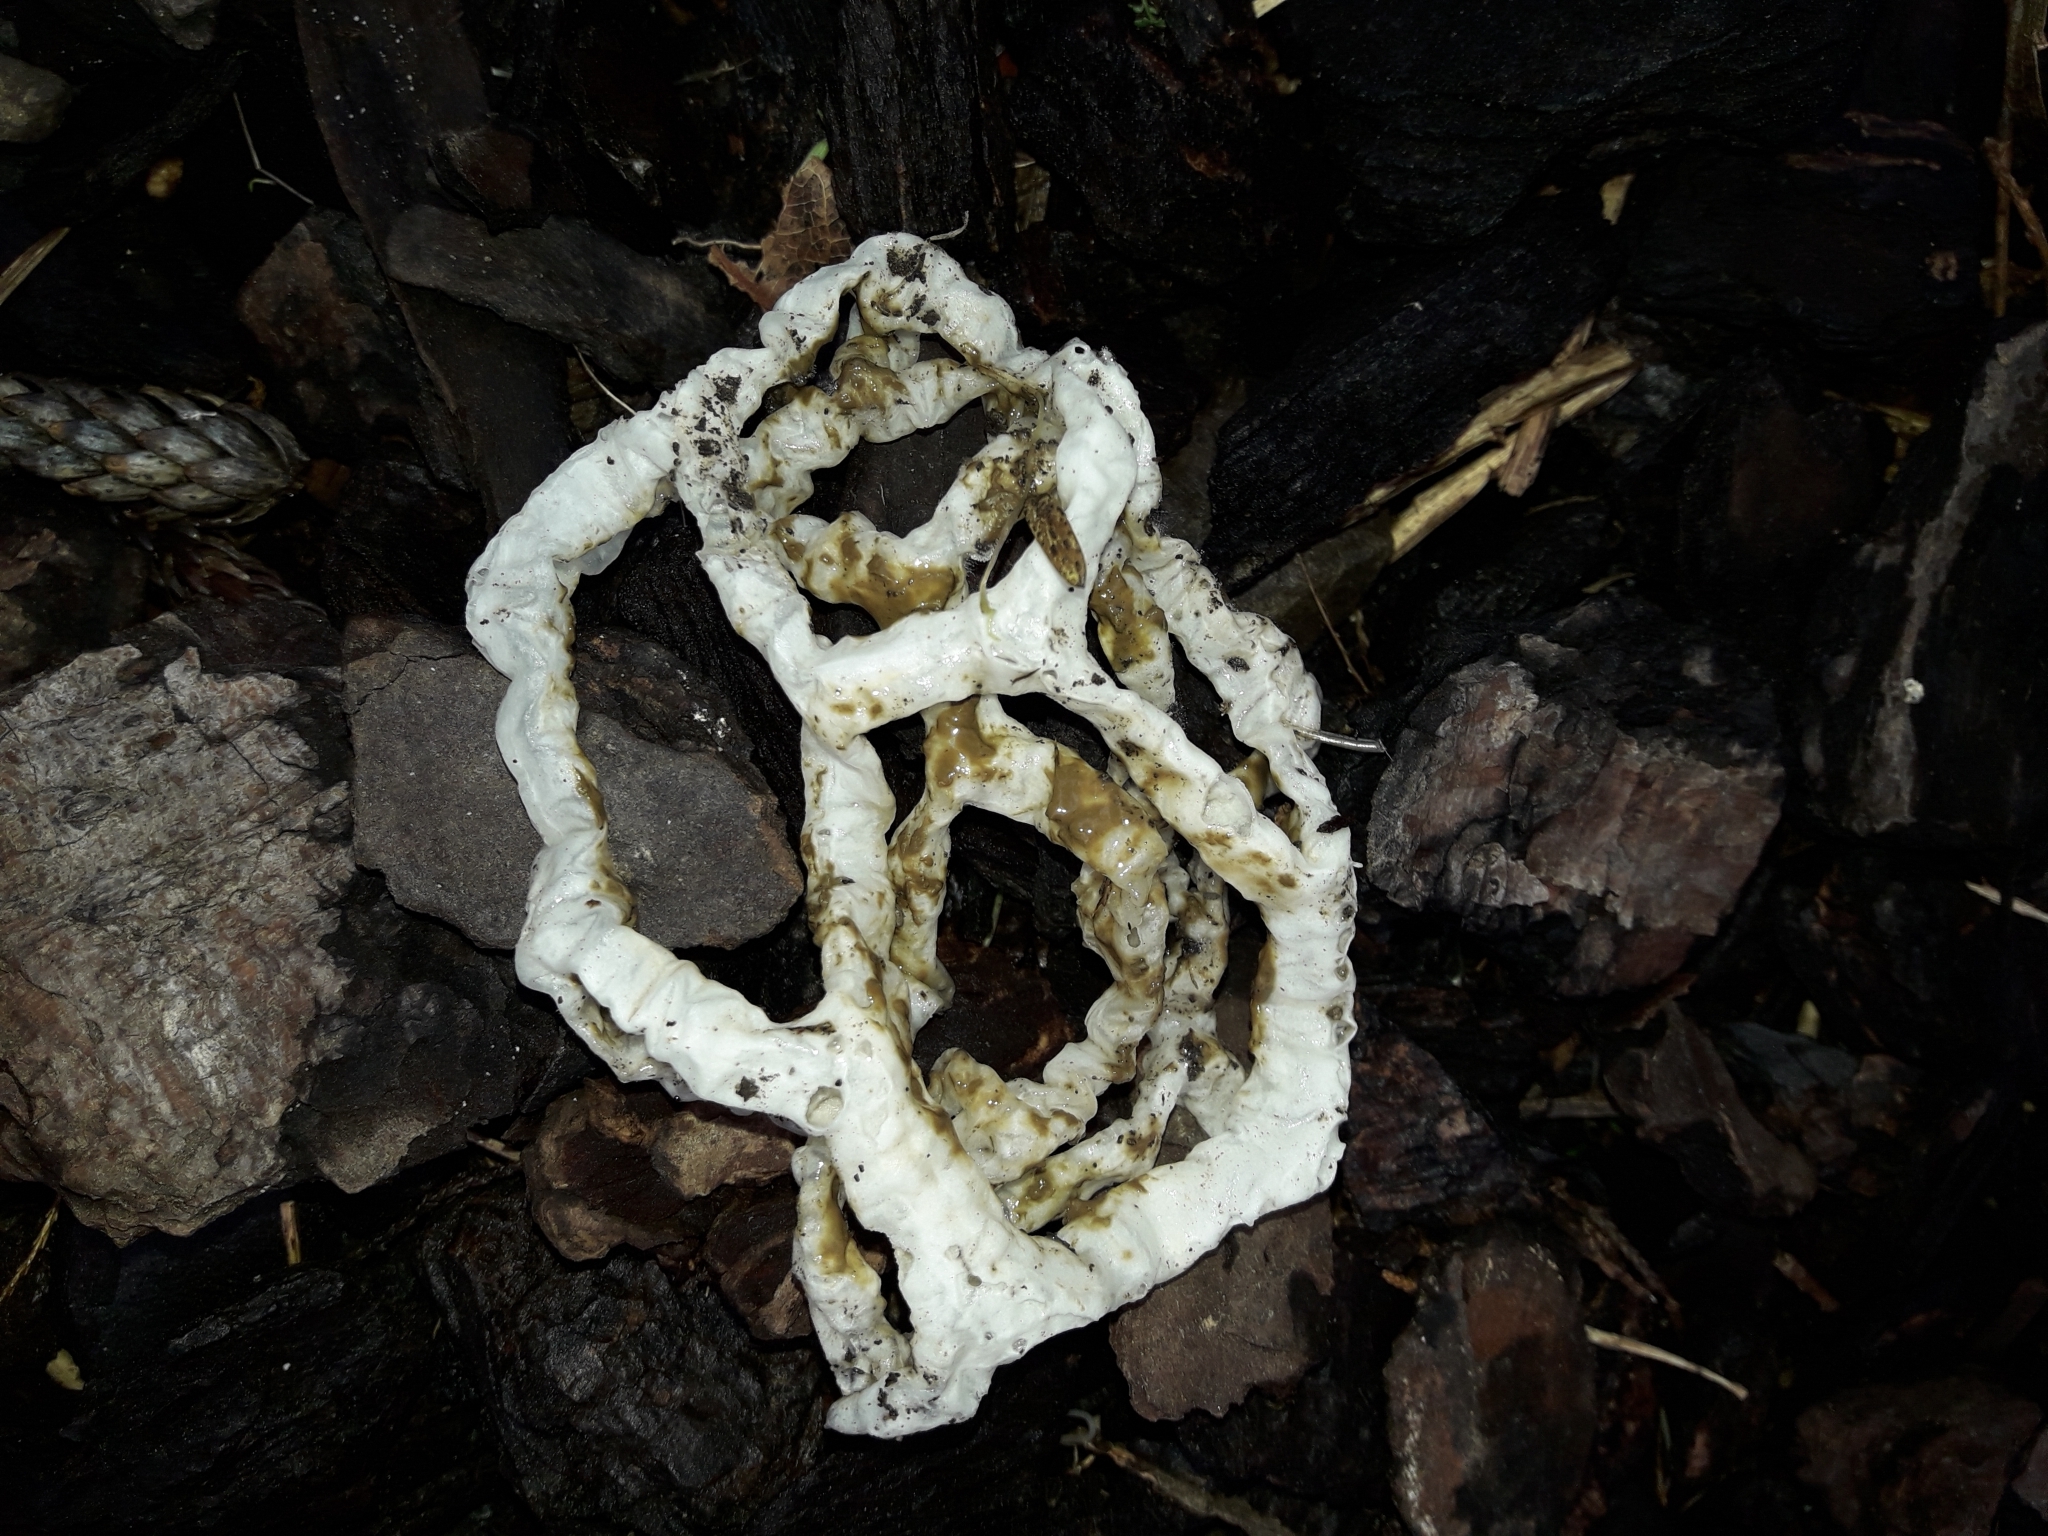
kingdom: Fungi
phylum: Basidiomycota
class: Agaricomycetes
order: Phallales
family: Phallaceae
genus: Ileodictyon
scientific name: Ileodictyon cibarium
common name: Basket fungus
